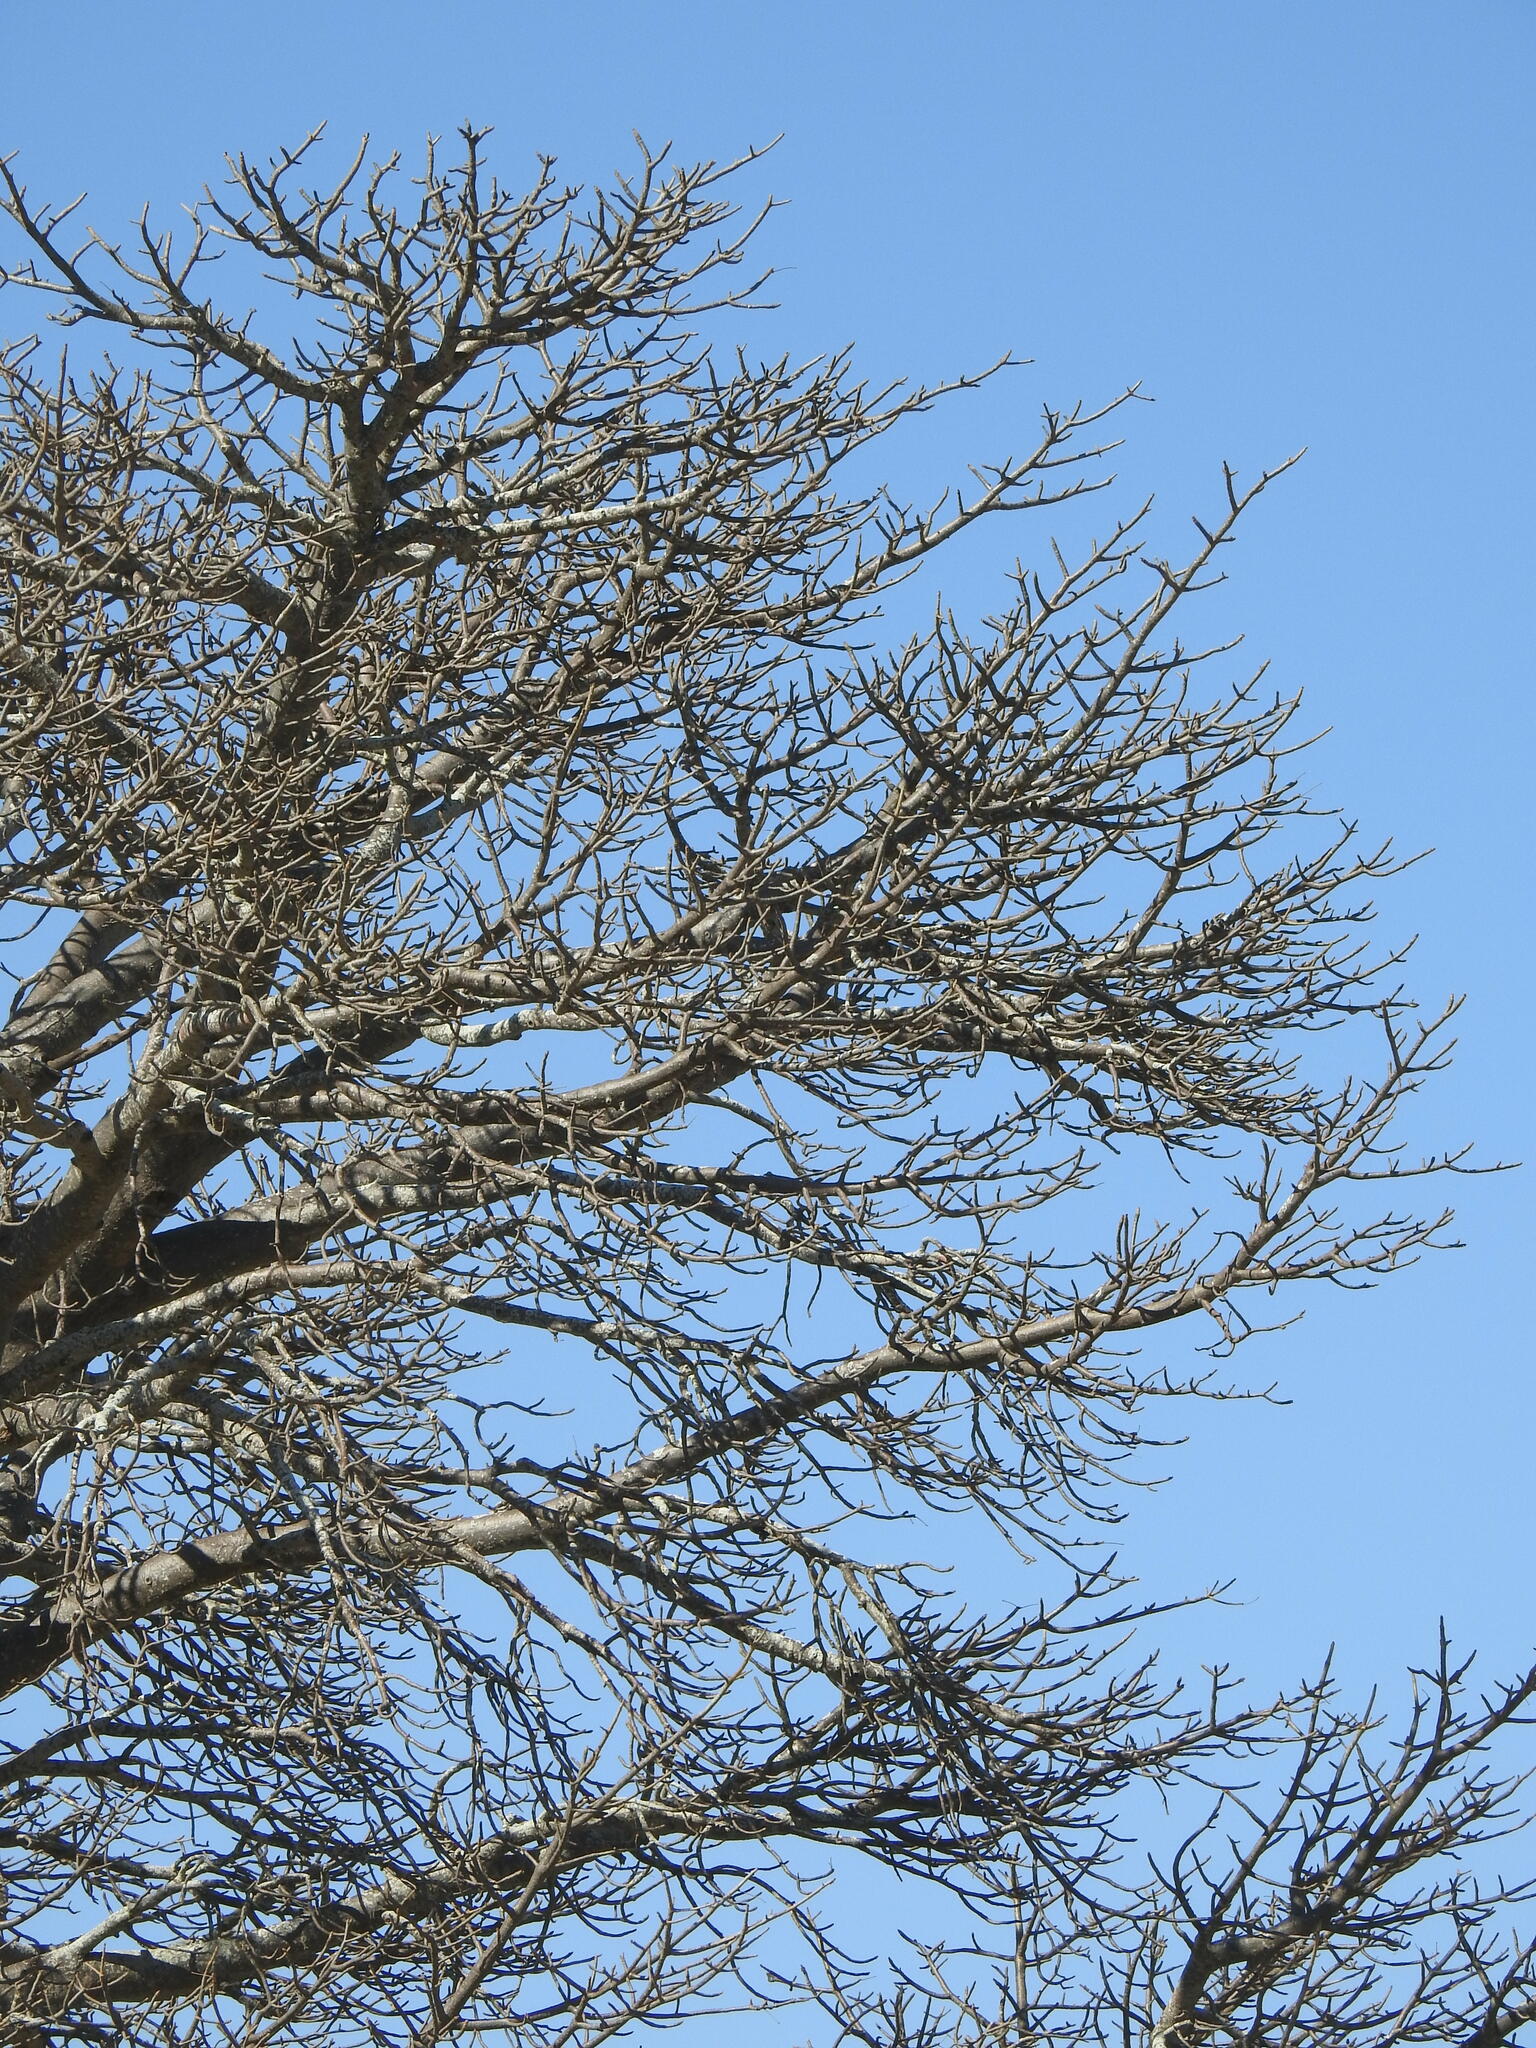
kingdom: Plantae
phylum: Tracheophyta
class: Magnoliopsida
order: Malvales
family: Malvaceae
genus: Adansonia
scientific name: Adansonia digitata
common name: Dead-rat-tree
